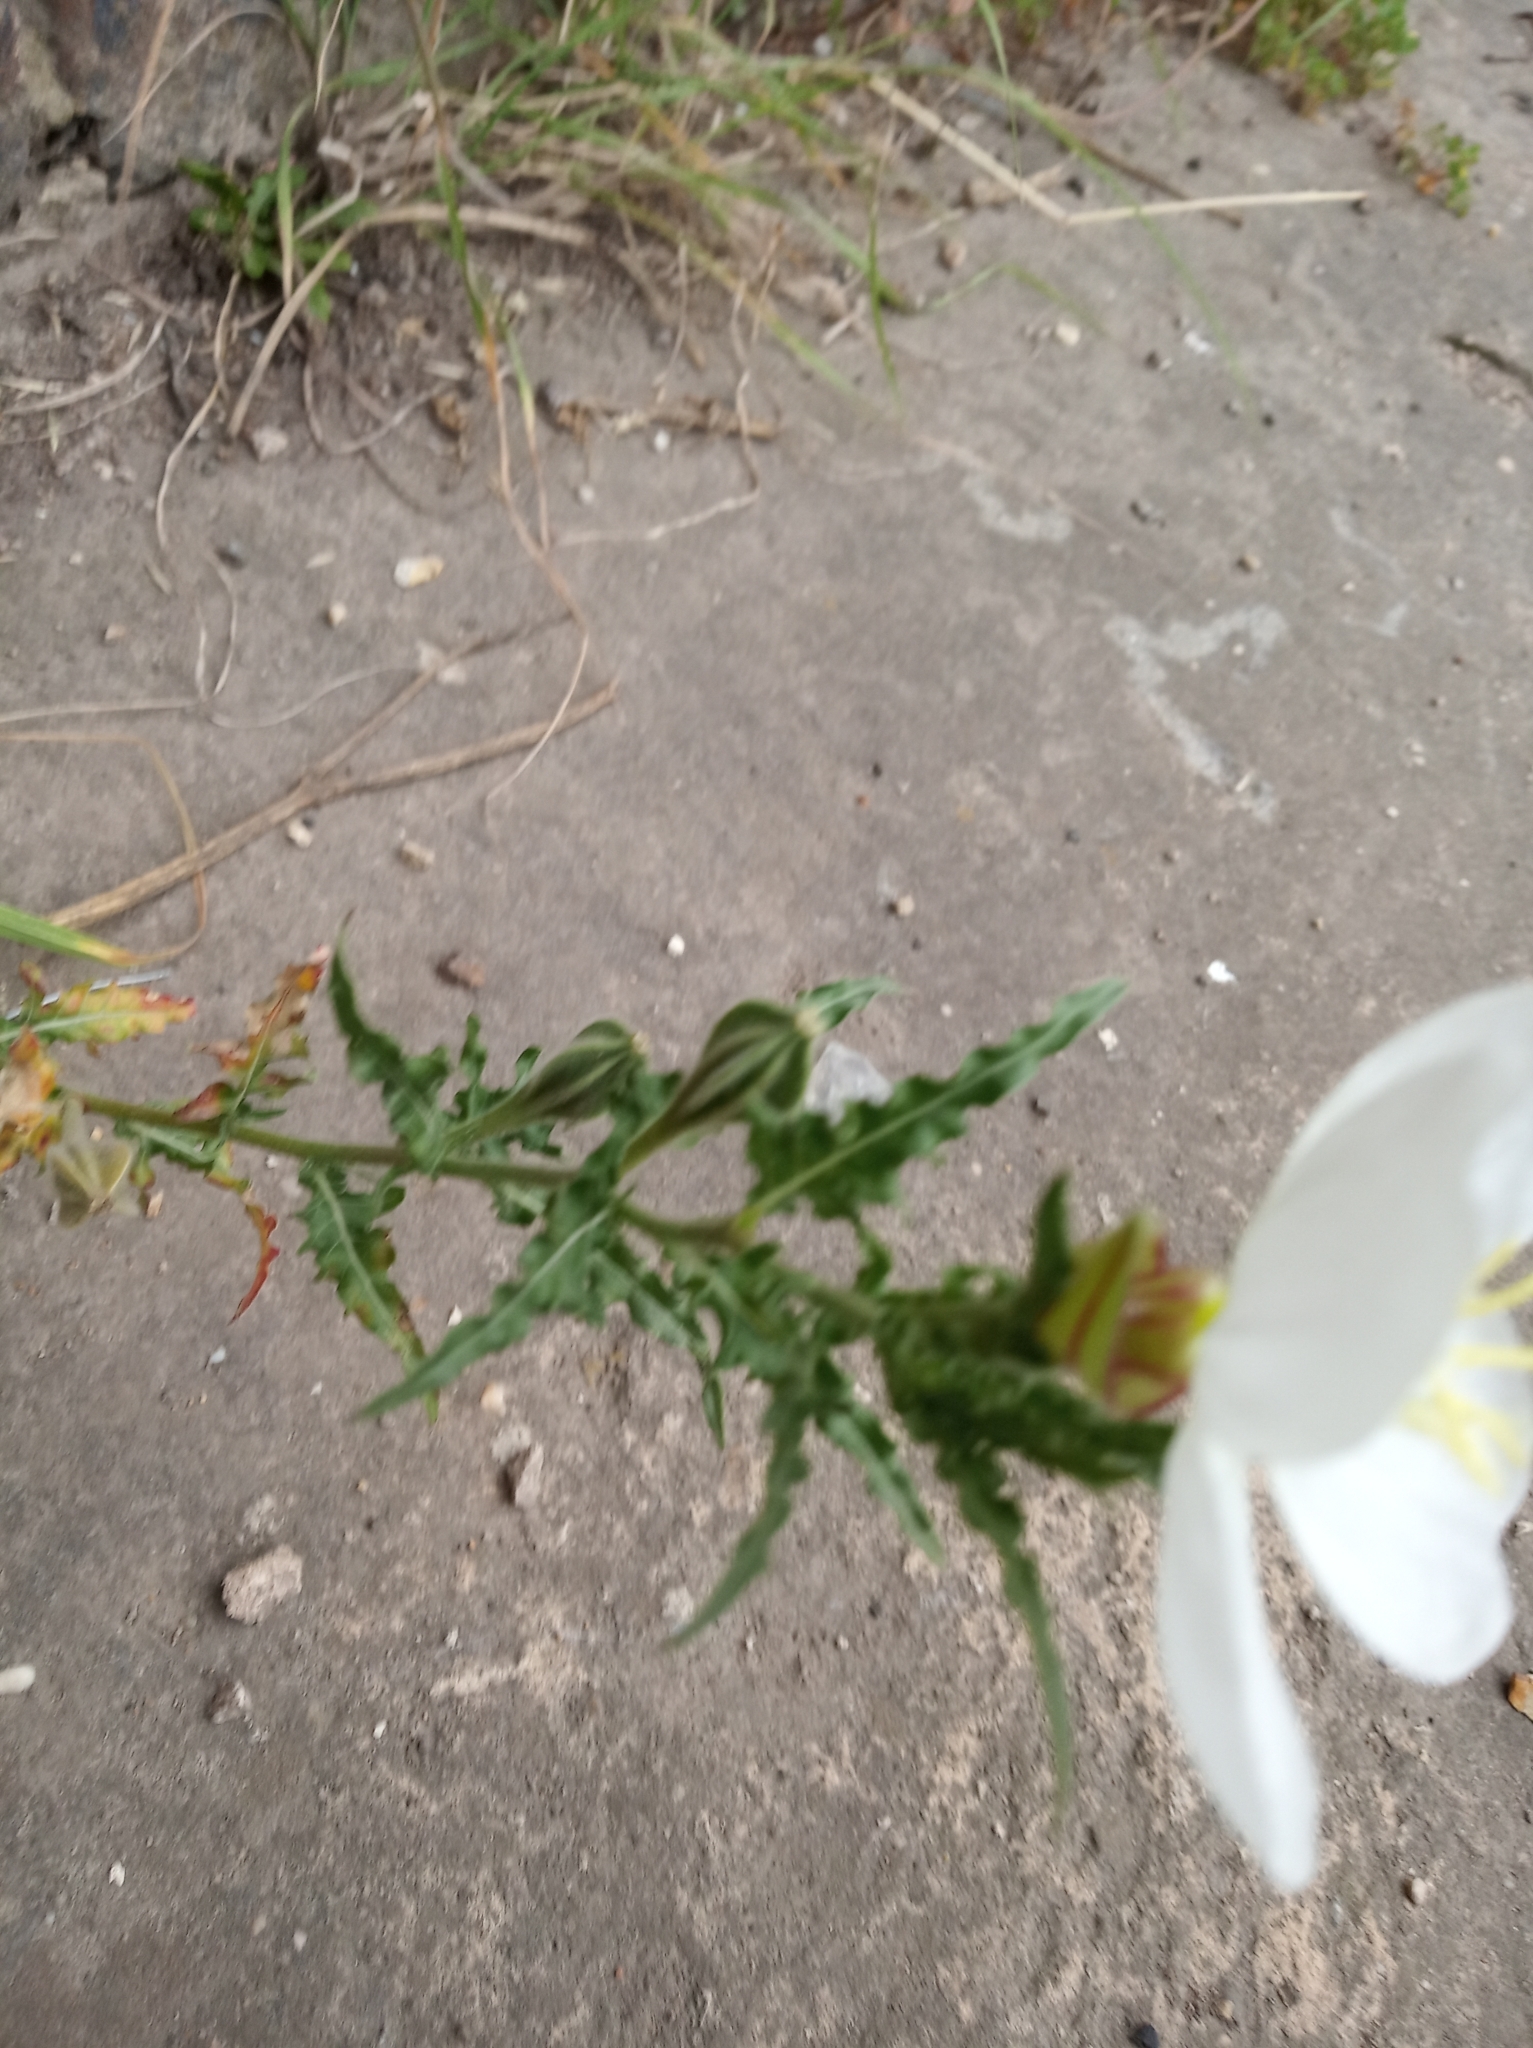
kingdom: Plantae
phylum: Tracheophyta
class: Magnoliopsida
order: Myrtales
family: Onagraceae
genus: Oenothera
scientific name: Oenothera tetraptera
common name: Four-wing evening-primrose
